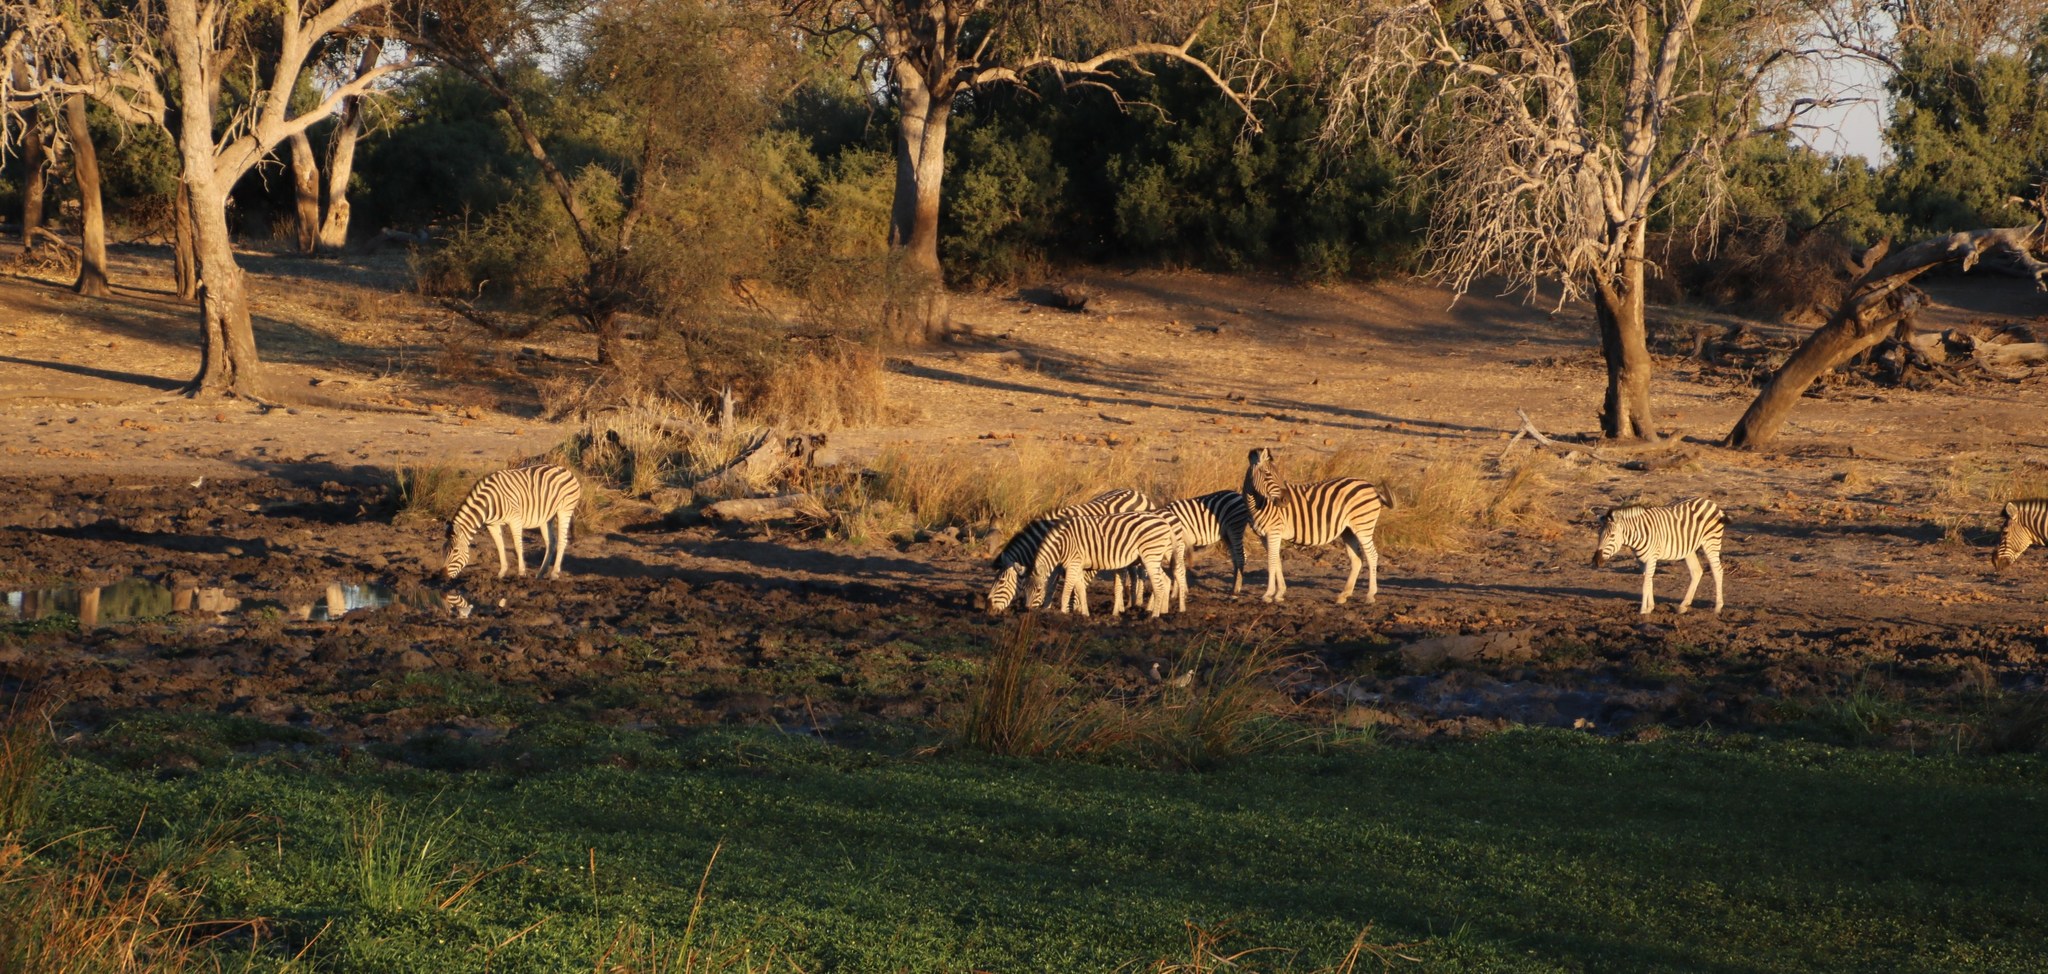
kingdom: Animalia
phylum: Chordata
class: Mammalia
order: Perissodactyla
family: Equidae
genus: Equus
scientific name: Equus quagga
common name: Plains zebra
